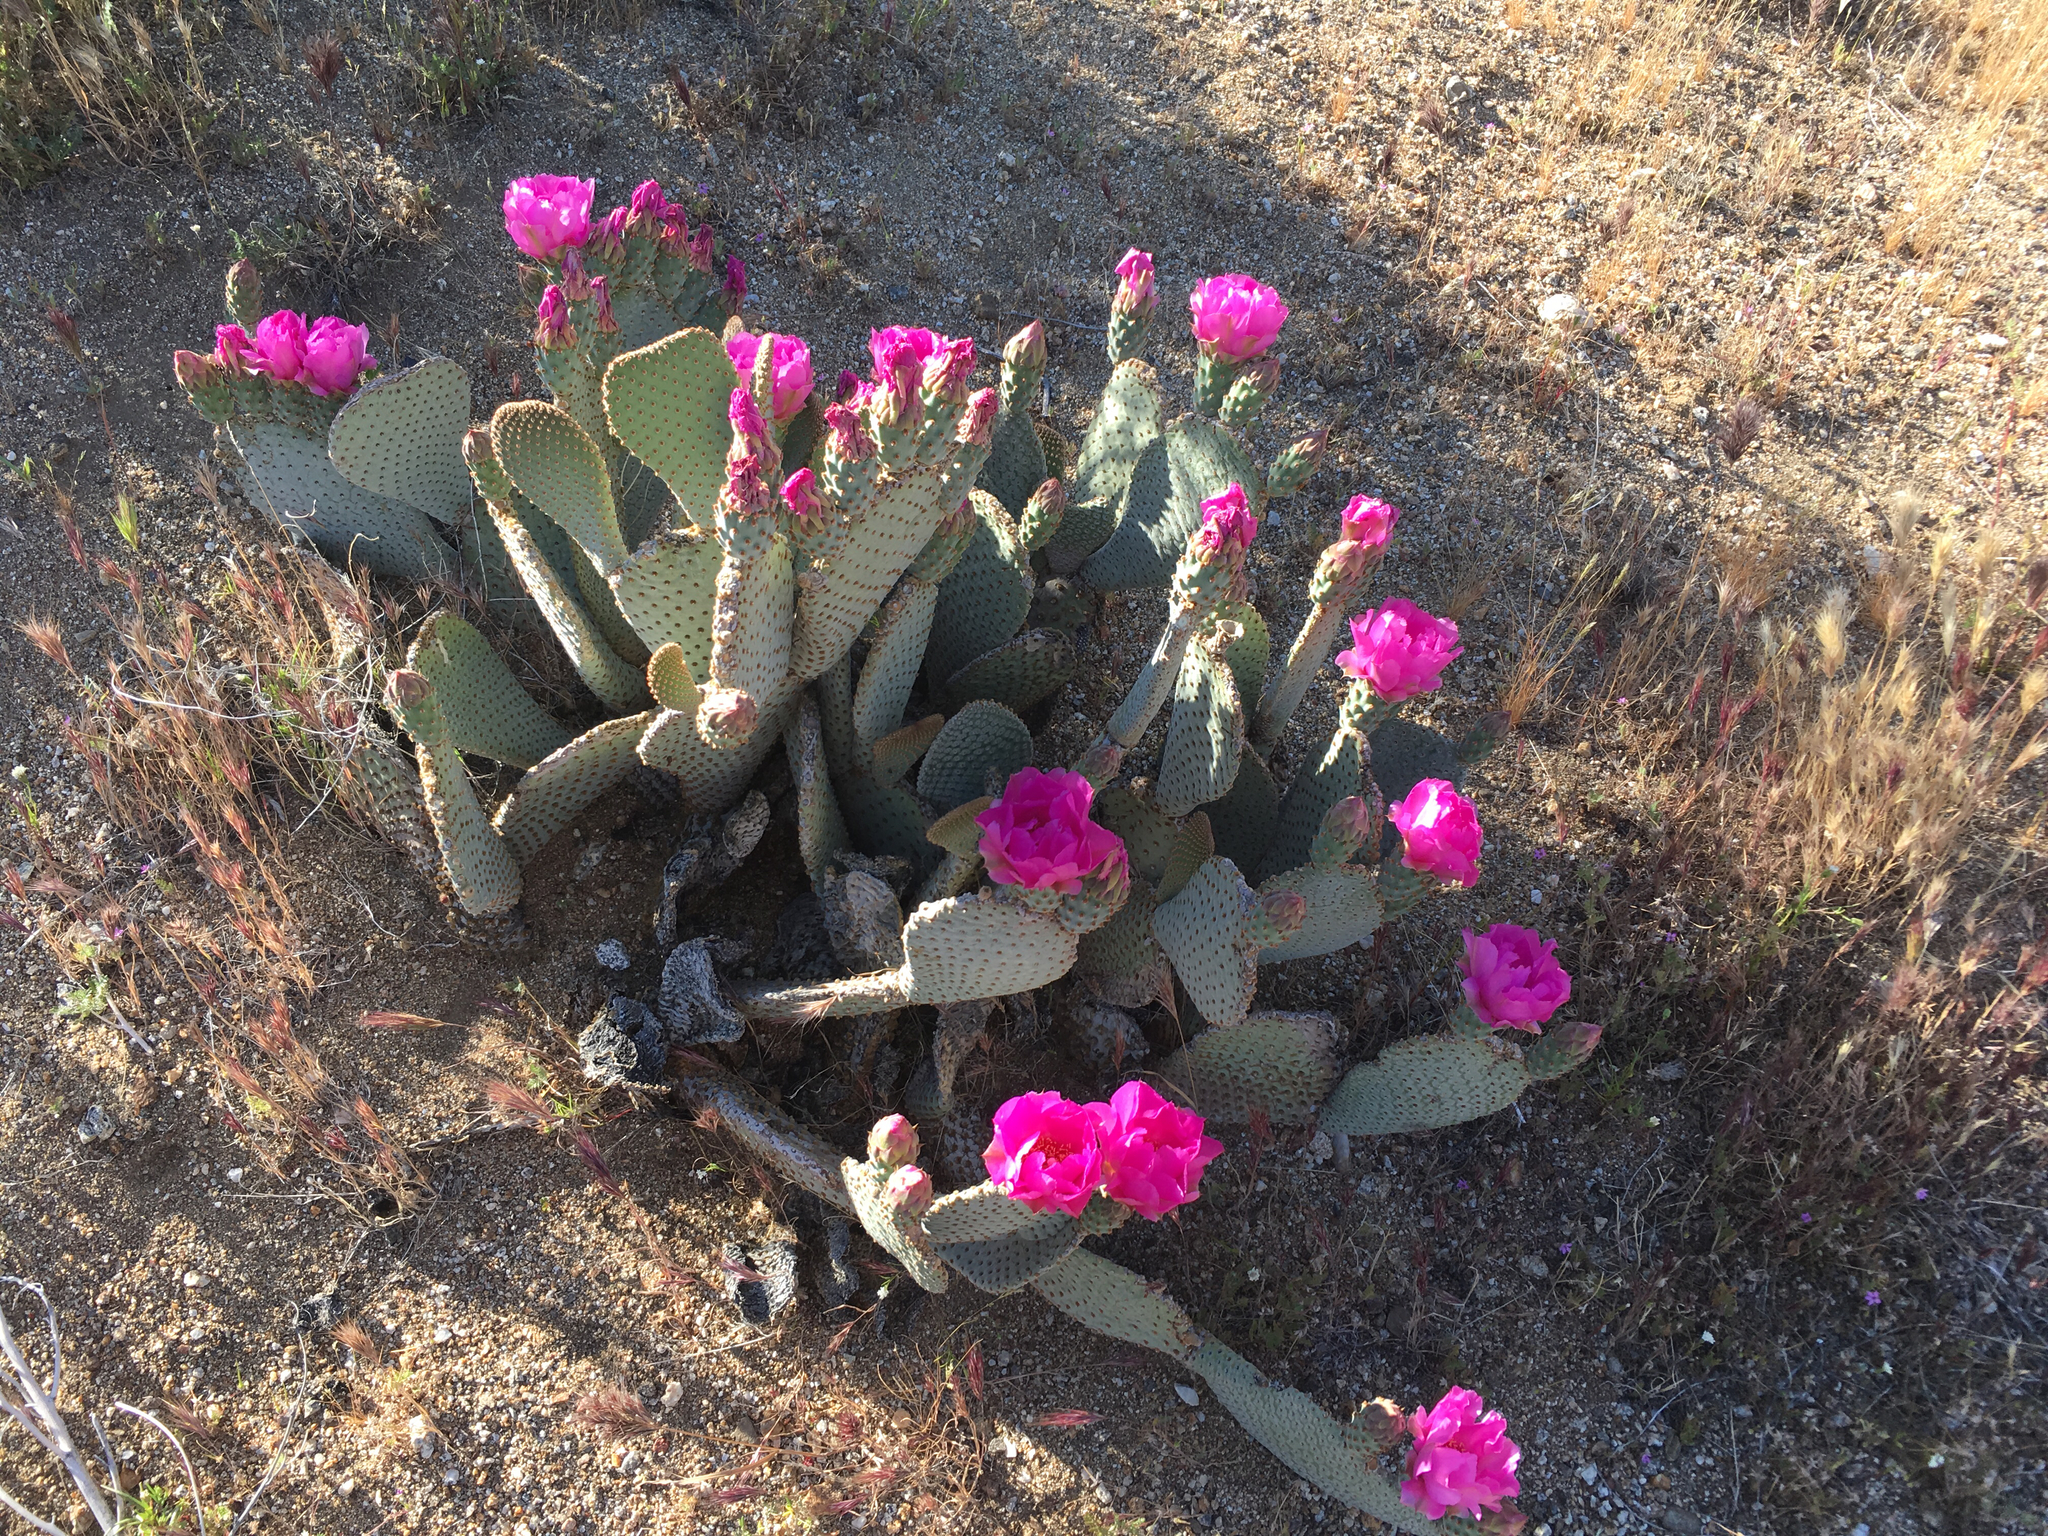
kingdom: Plantae
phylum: Tracheophyta
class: Magnoliopsida
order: Caryophyllales
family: Cactaceae
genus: Opuntia
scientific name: Opuntia basilaris
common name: Beavertail prickly-pear
